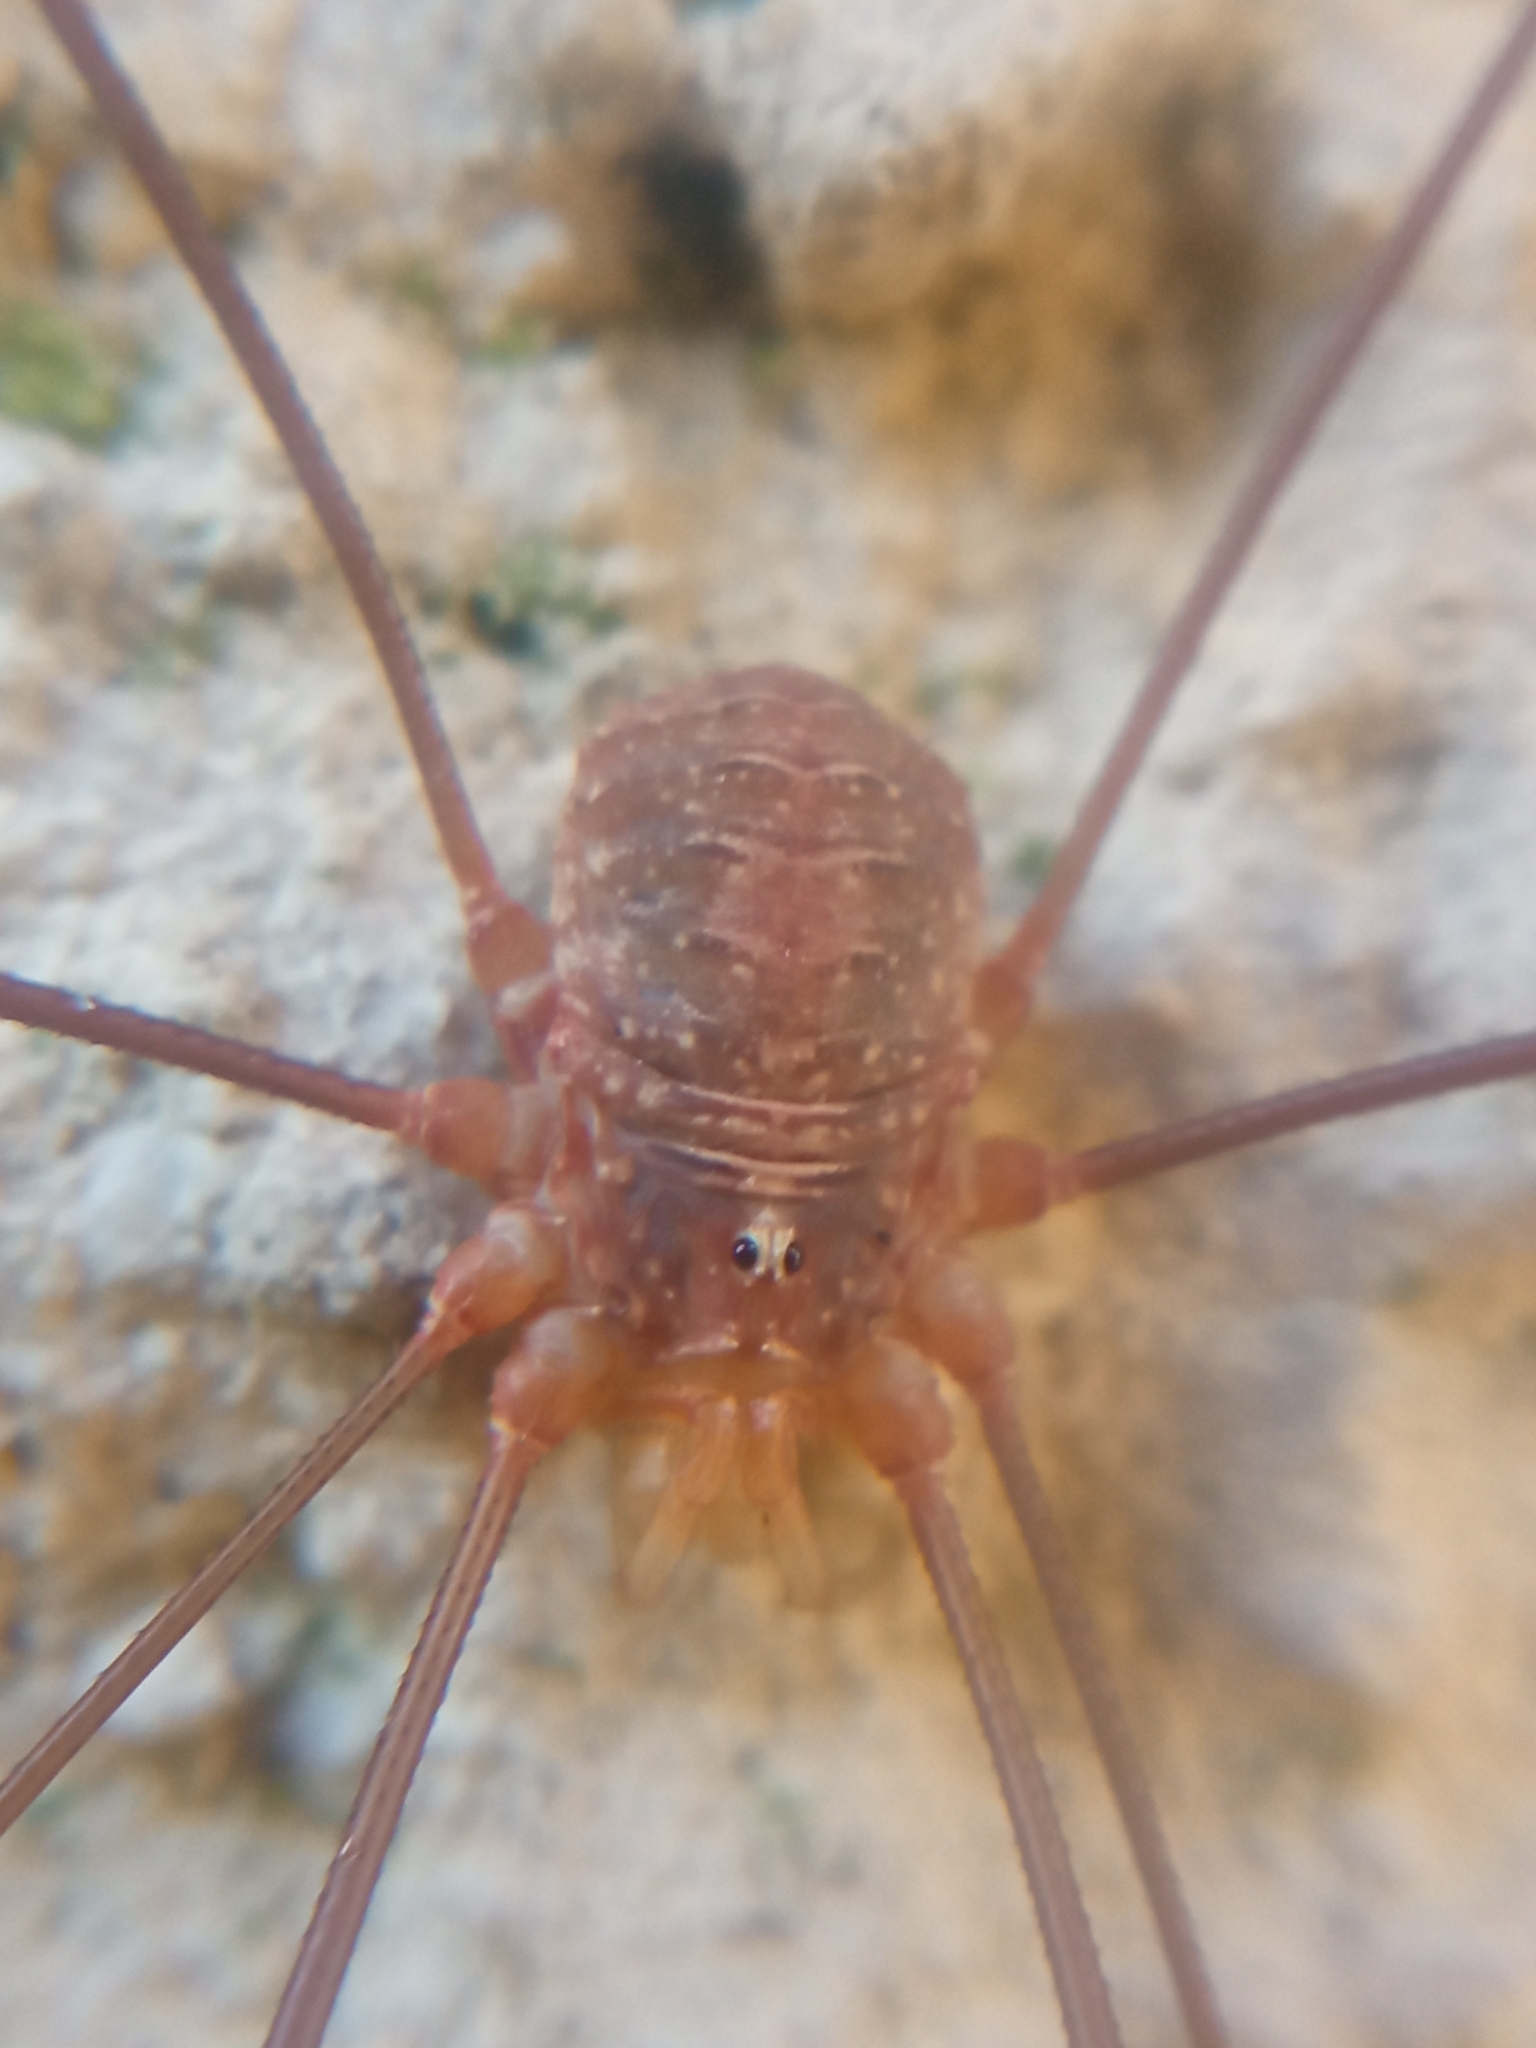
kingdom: Animalia
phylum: Arthropoda
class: Arachnida
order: Opiliones
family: Phalangiidae
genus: Opilio
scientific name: Opilio canestrinii
